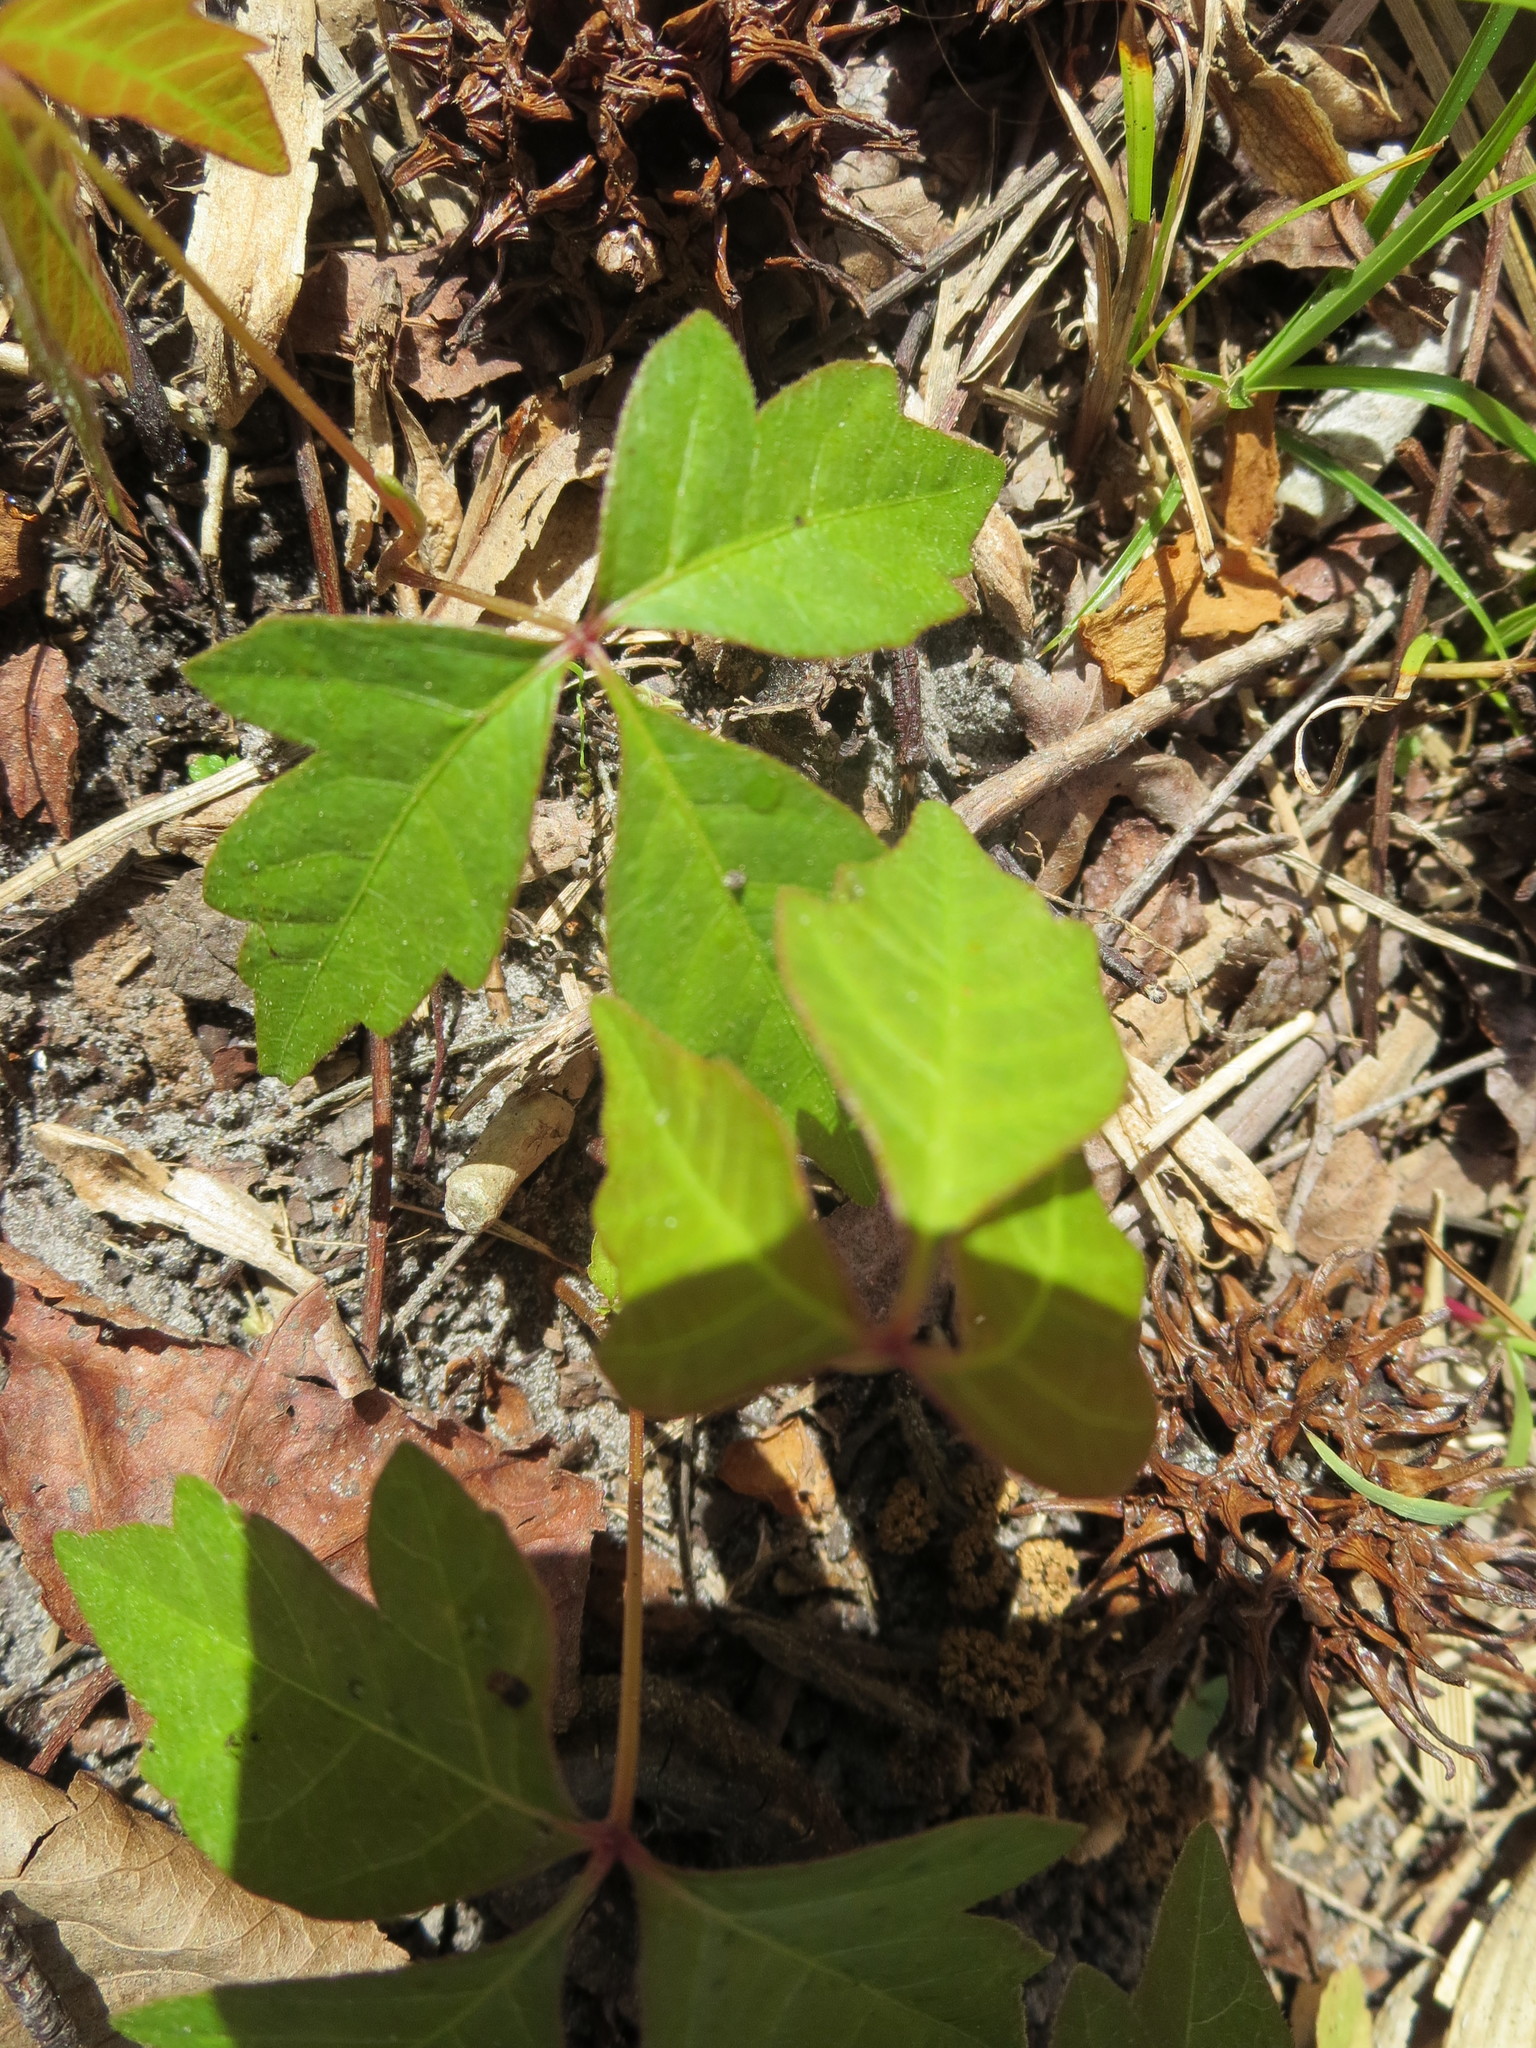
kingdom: Plantae
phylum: Tracheophyta
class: Magnoliopsida
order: Sapindales
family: Anacardiaceae
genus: Toxicodendron
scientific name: Toxicodendron radicans
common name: Poison ivy
